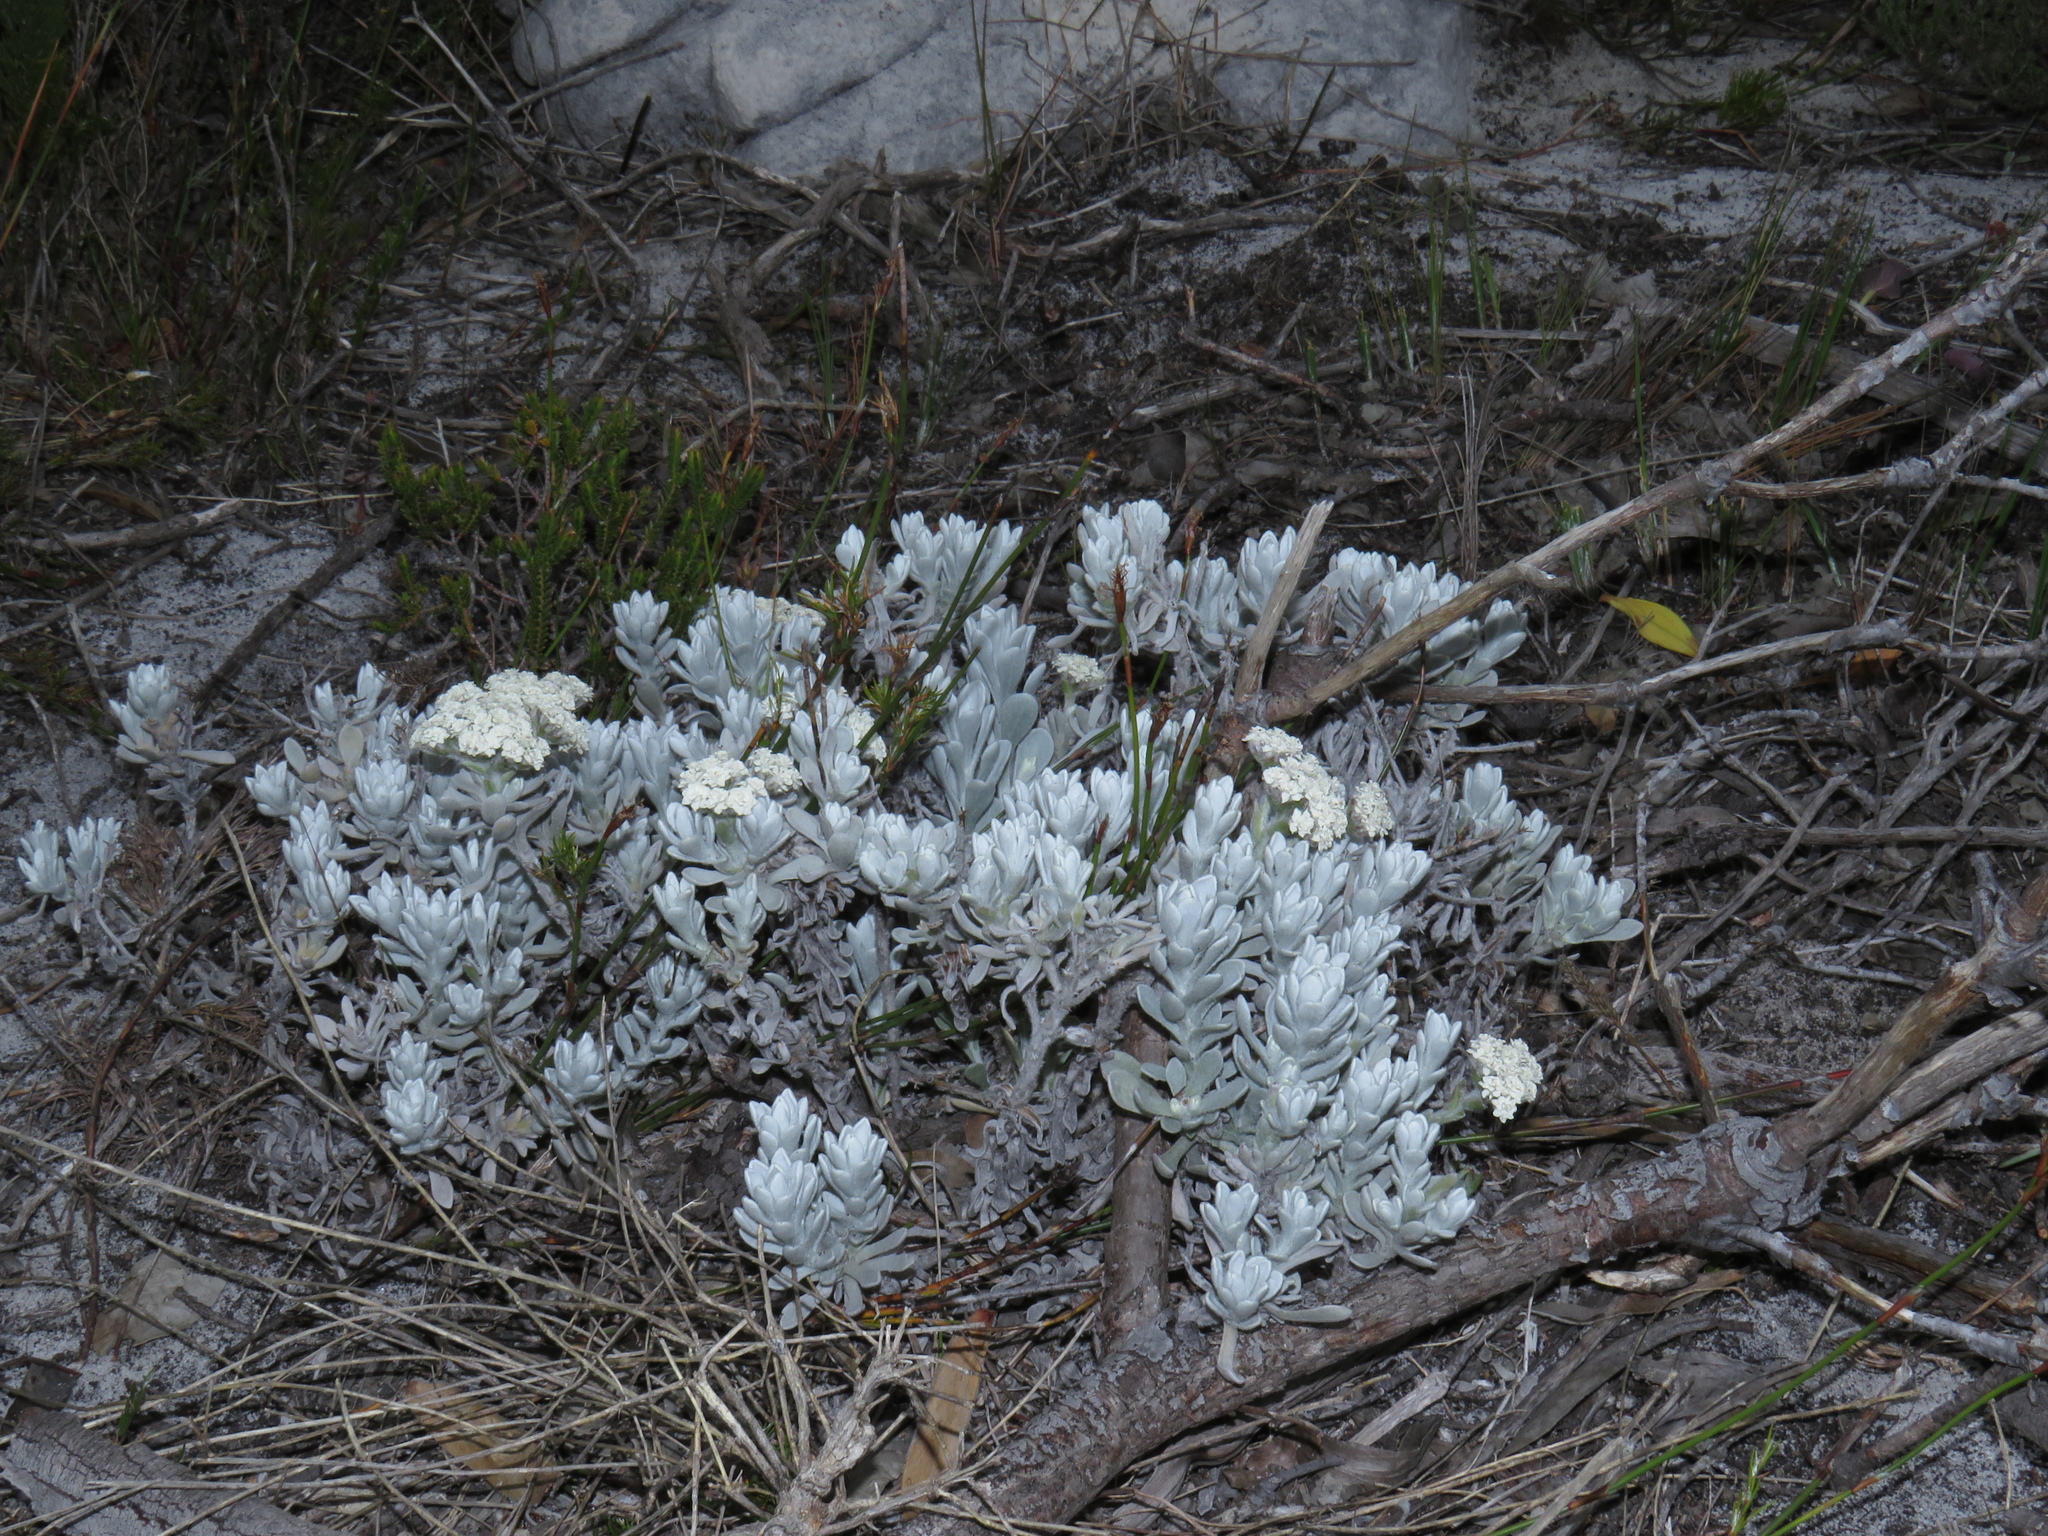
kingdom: Plantae
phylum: Tracheophyta
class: Magnoliopsida
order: Asterales
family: Asteraceae
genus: Petalacte
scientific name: Petalacte coronata
